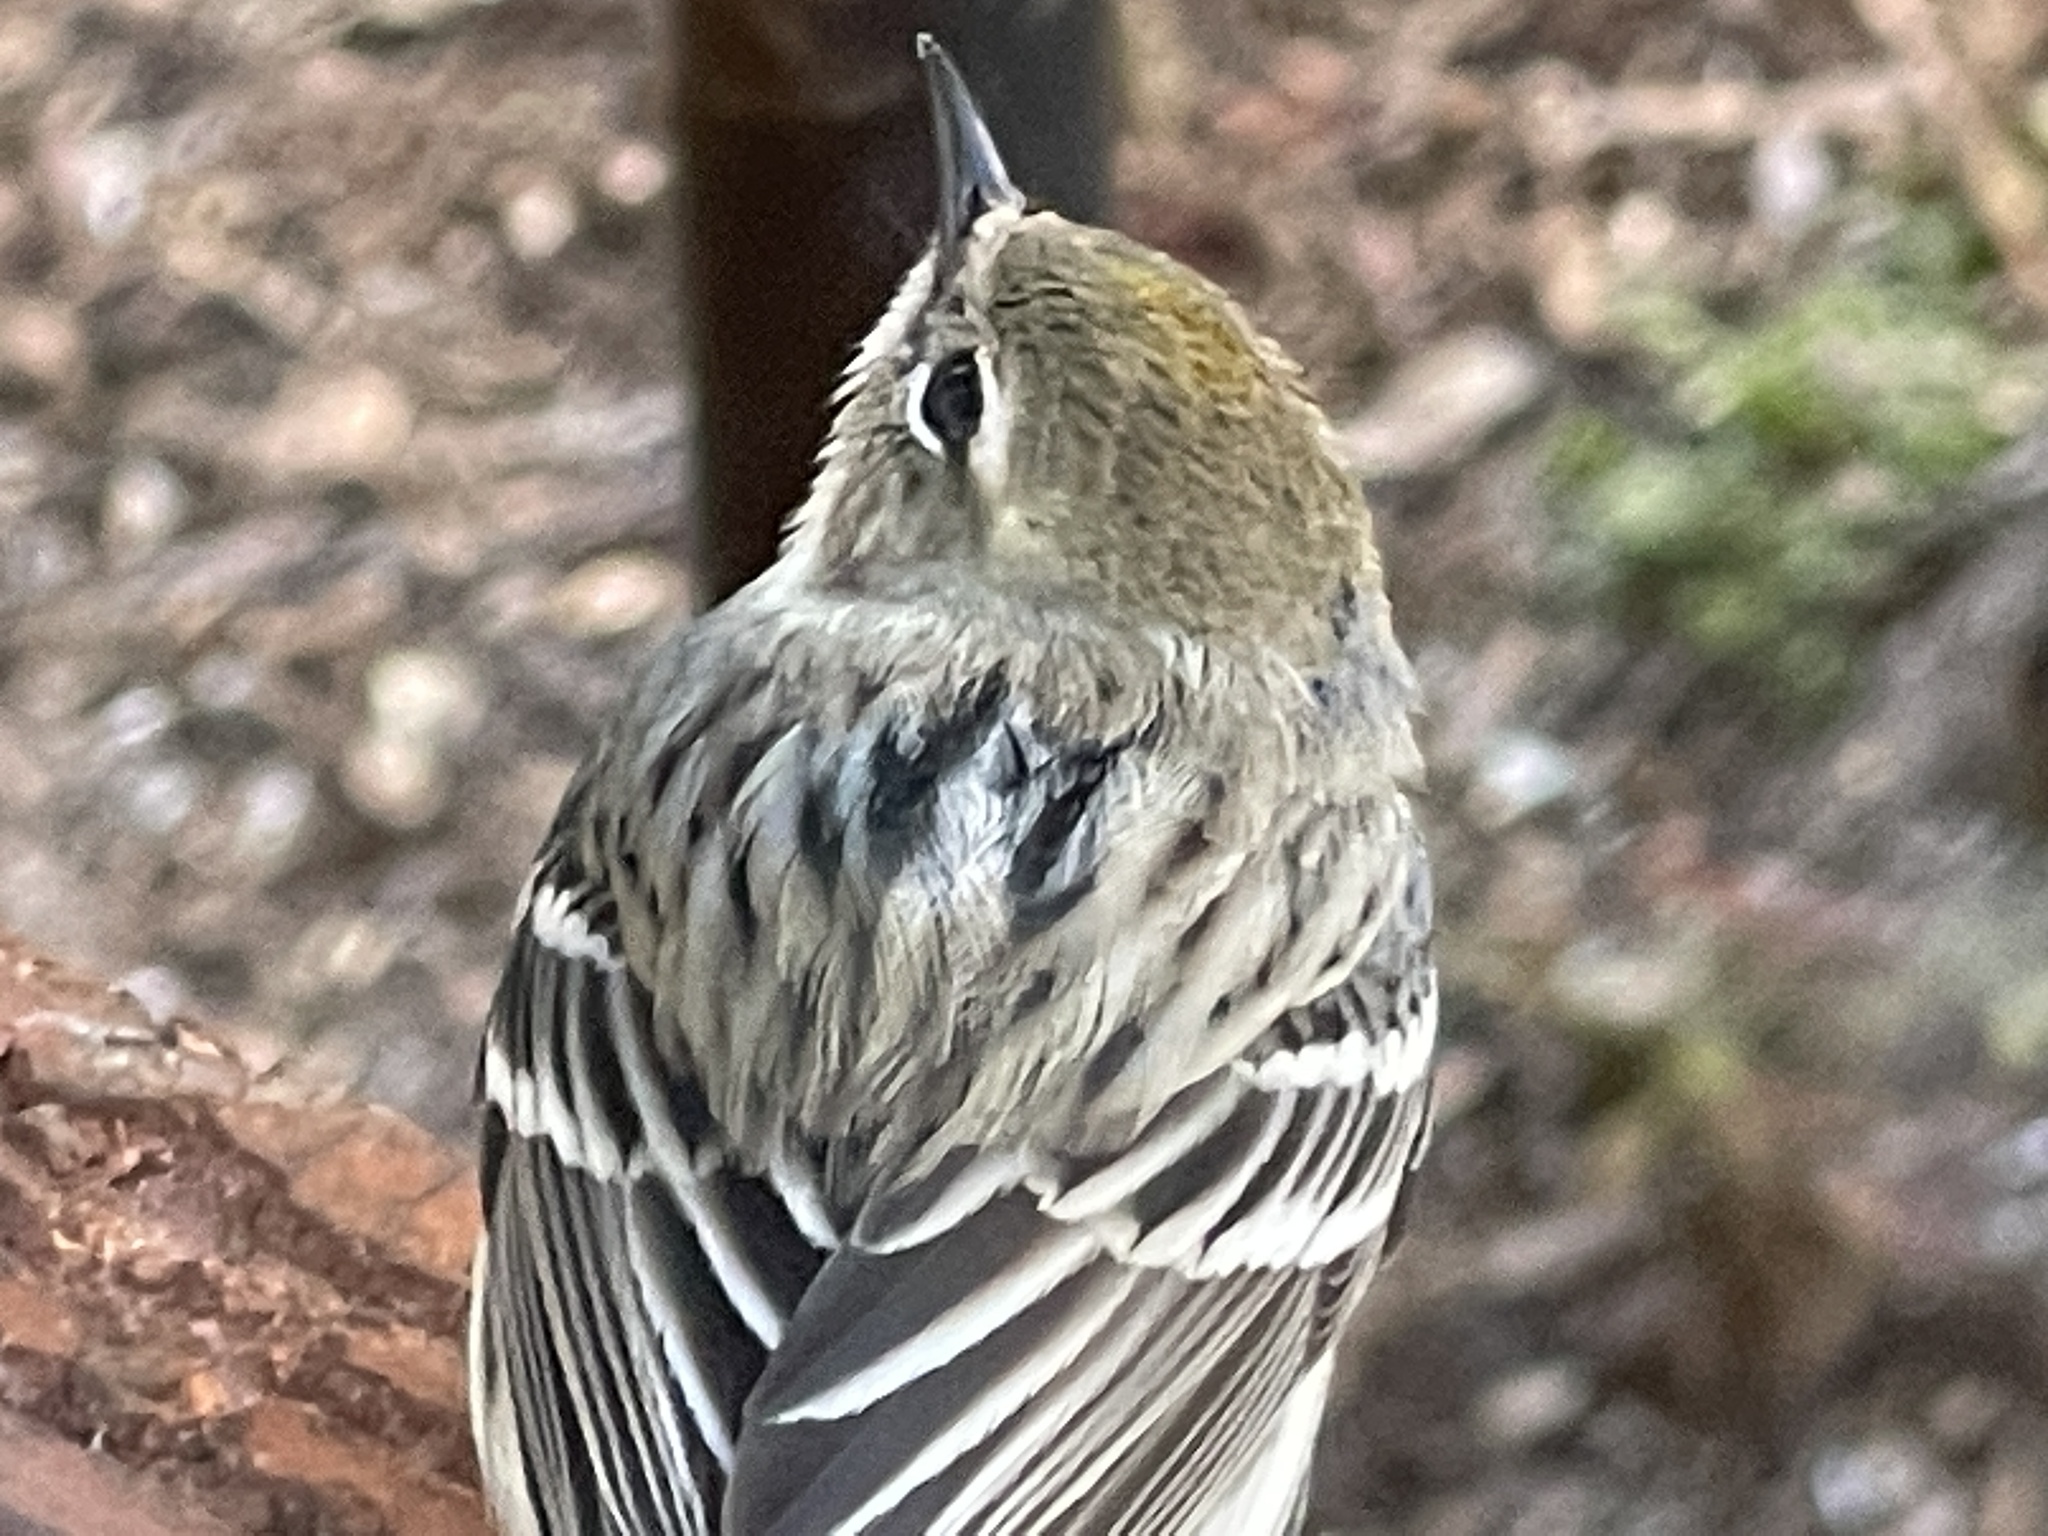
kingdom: Animalia
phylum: Chordata
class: Aves
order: Passeriformes
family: Parulidae
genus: Setophaga
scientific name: Setophaga coronata
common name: Myrtle warbler
